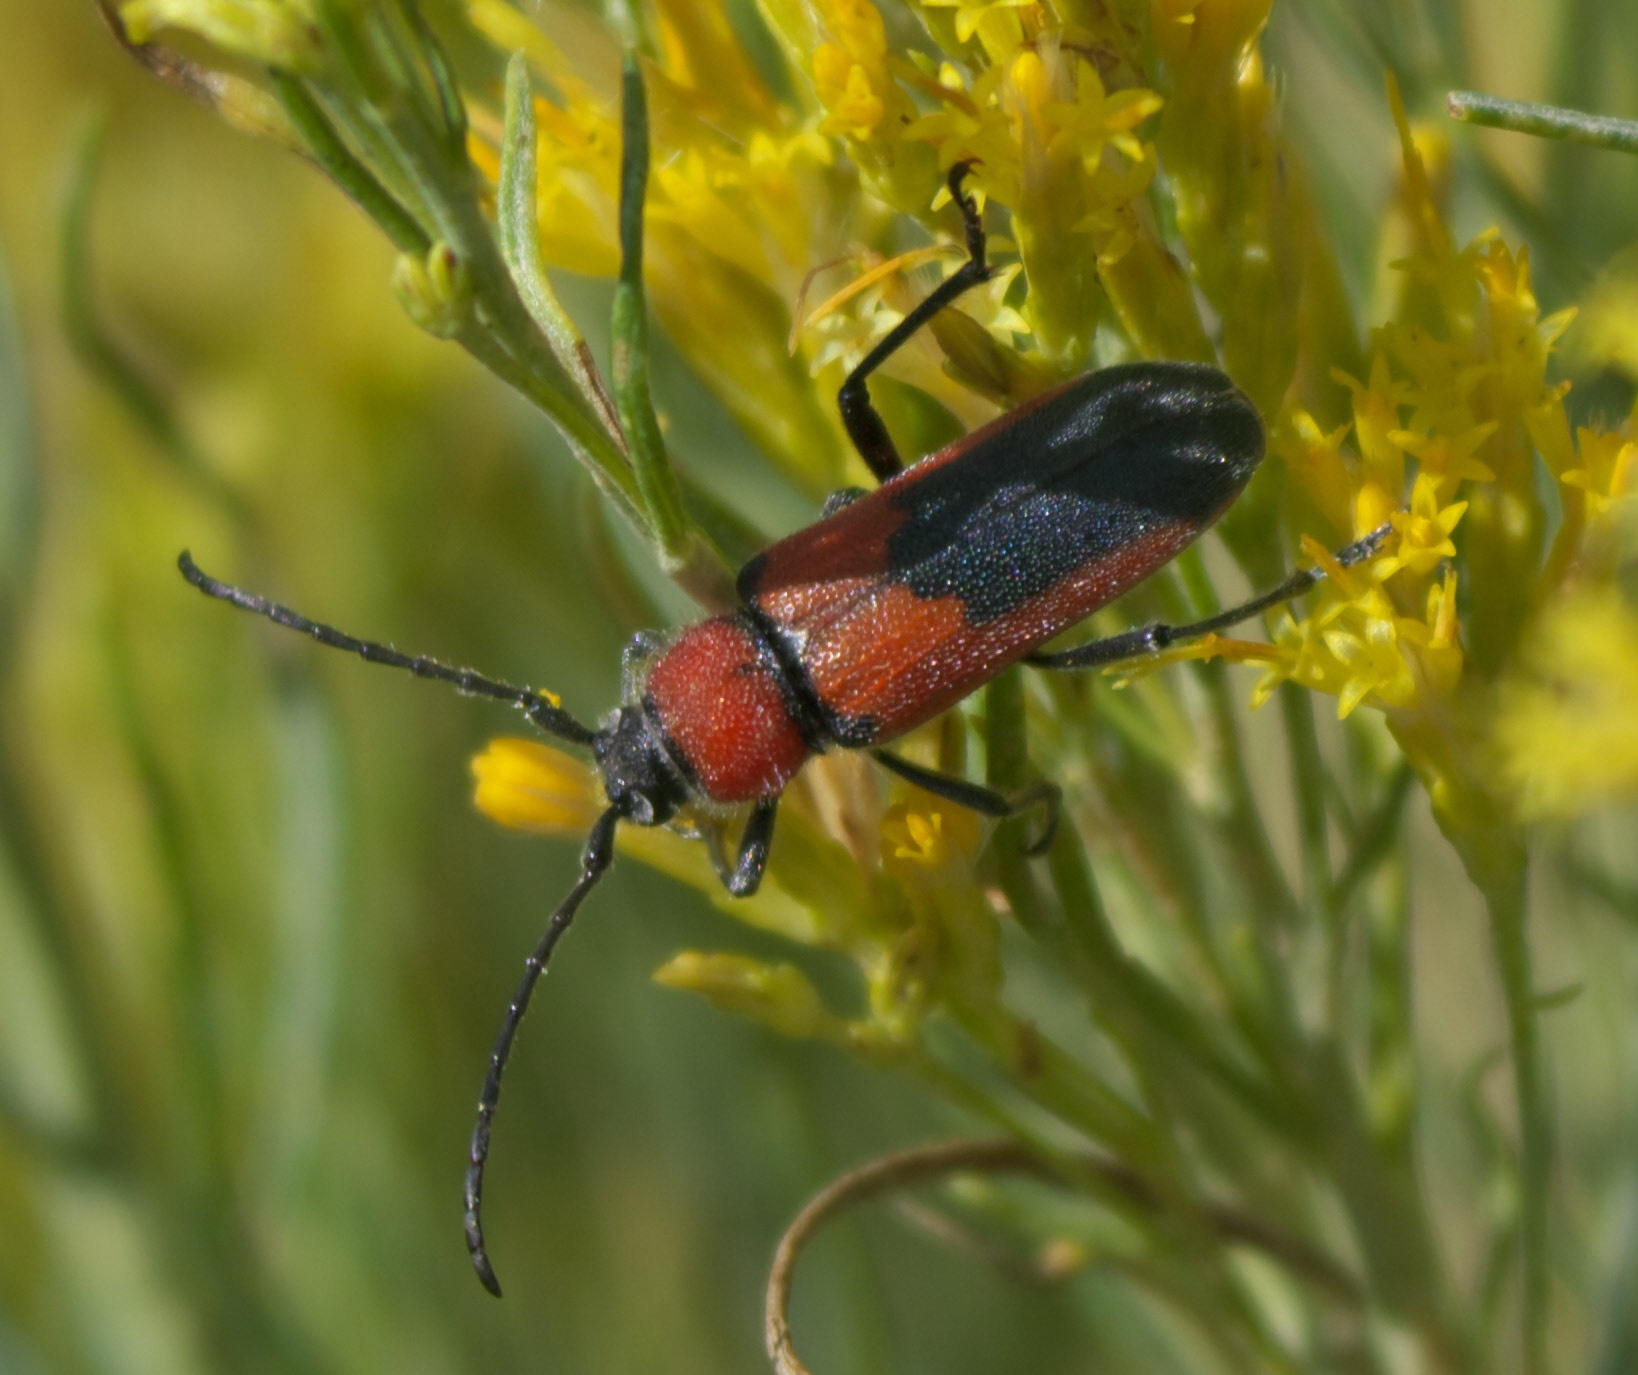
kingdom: Animalia
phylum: Arthropoda
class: Insecta
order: Coleoptera
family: Cerambycidae
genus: Crossidius
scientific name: Crossidius coralinus
